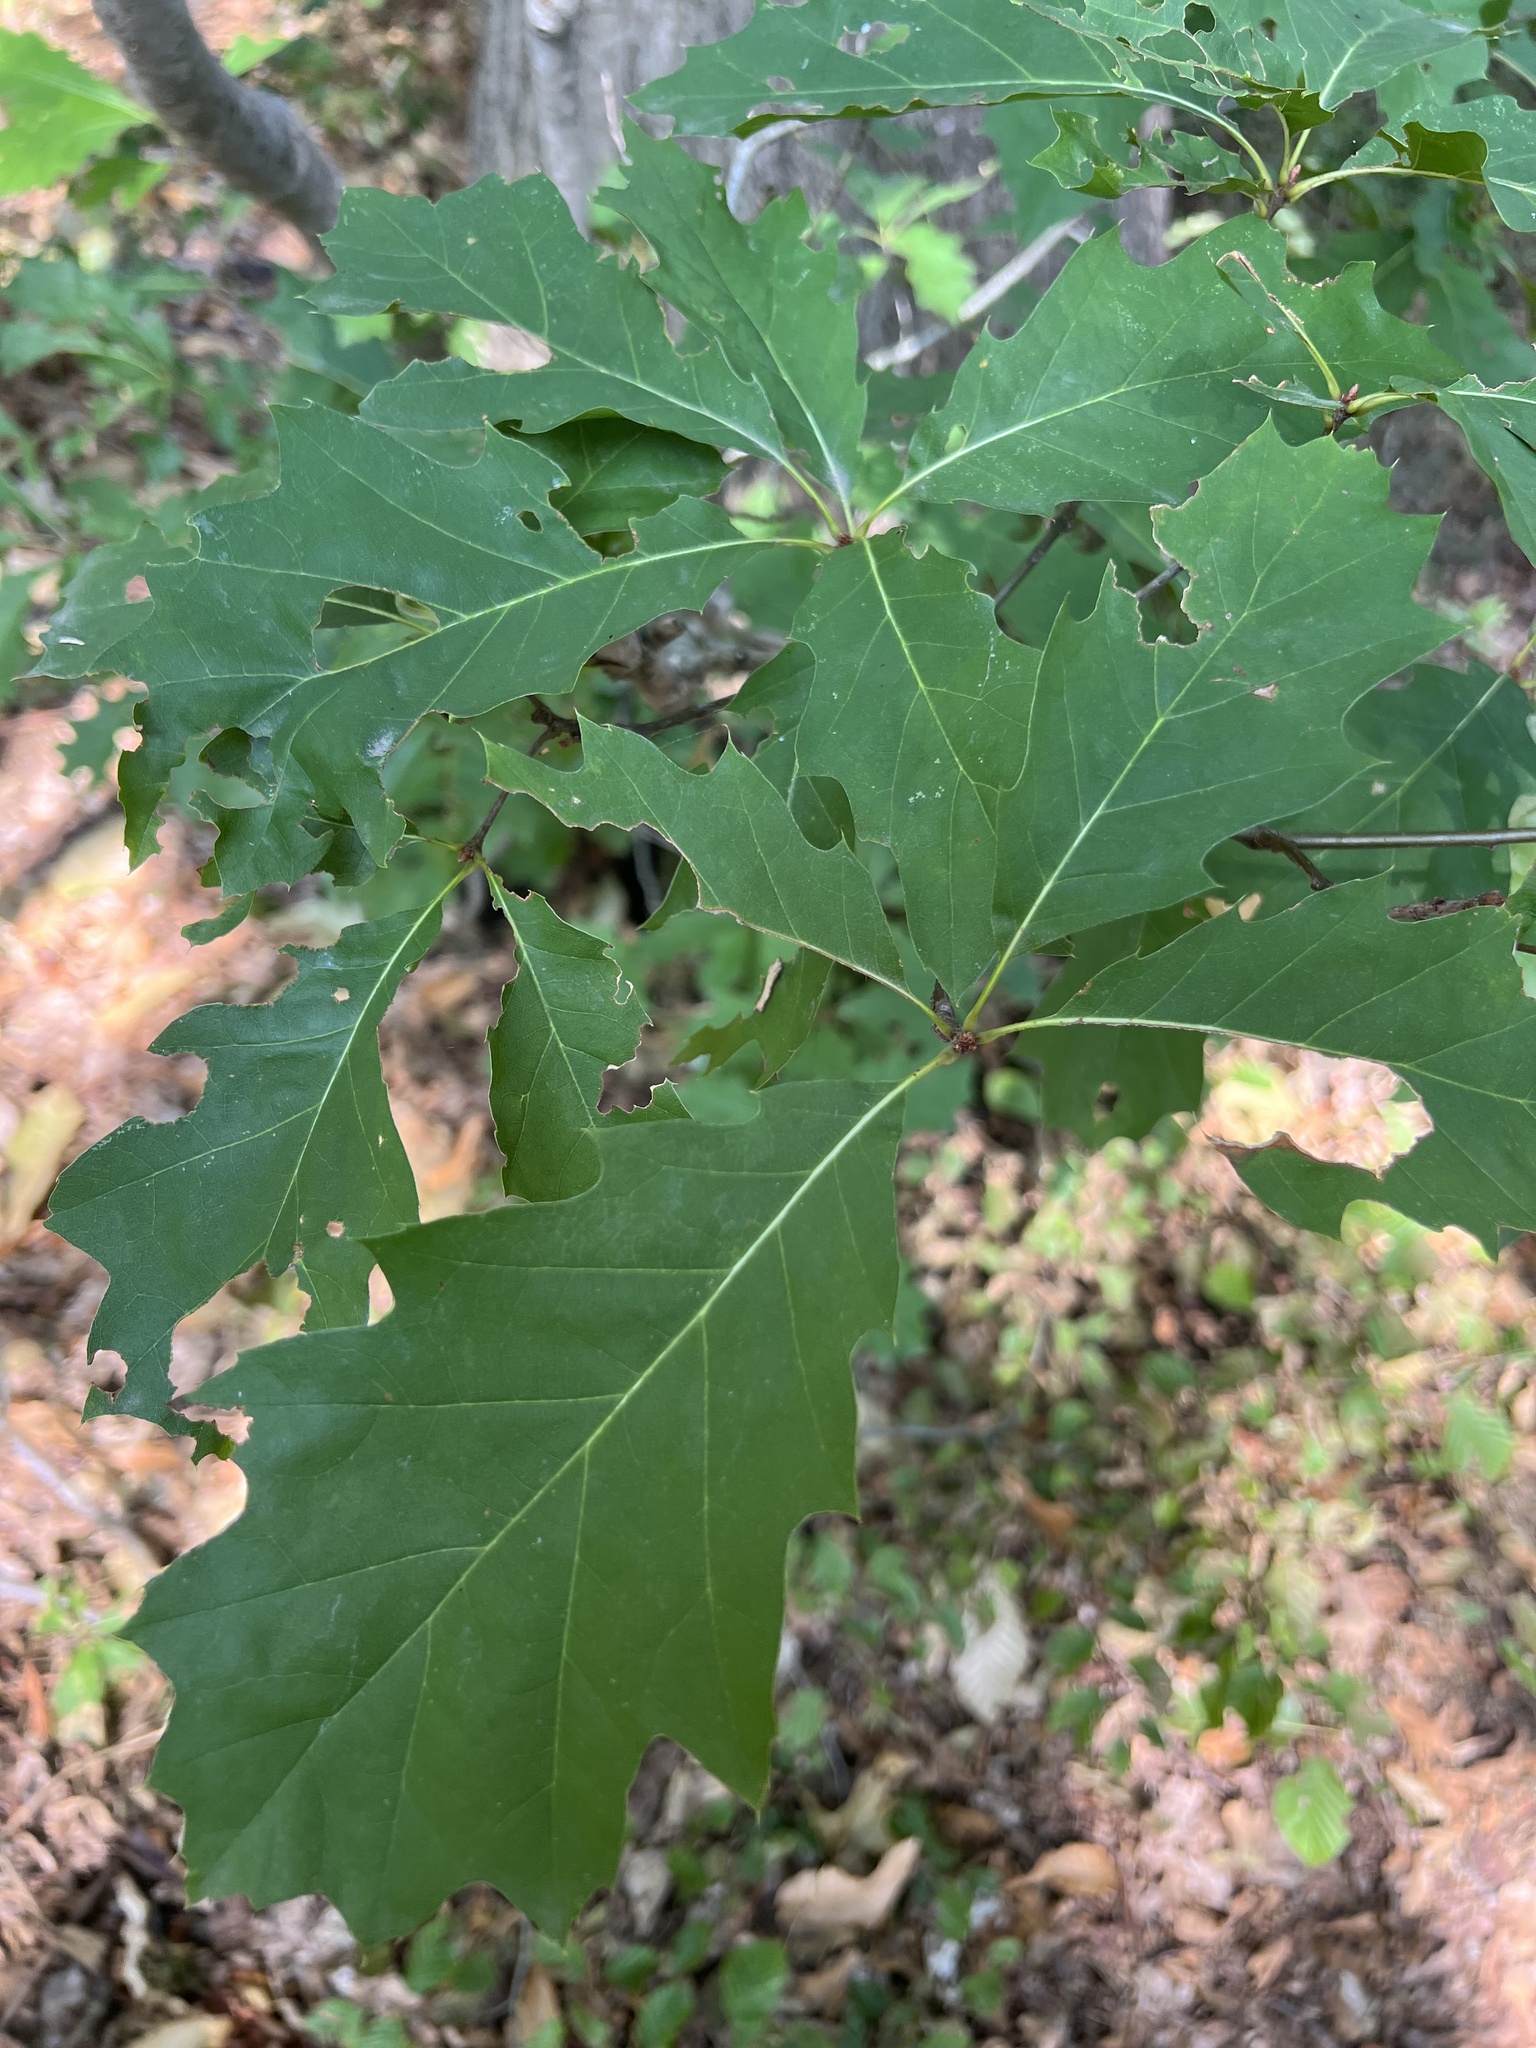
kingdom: Plantae
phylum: Tracheophyta
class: Magnoliopsida
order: Fagales
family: Fagaceae
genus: Quercus
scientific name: Quercus rubra
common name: Red oak
